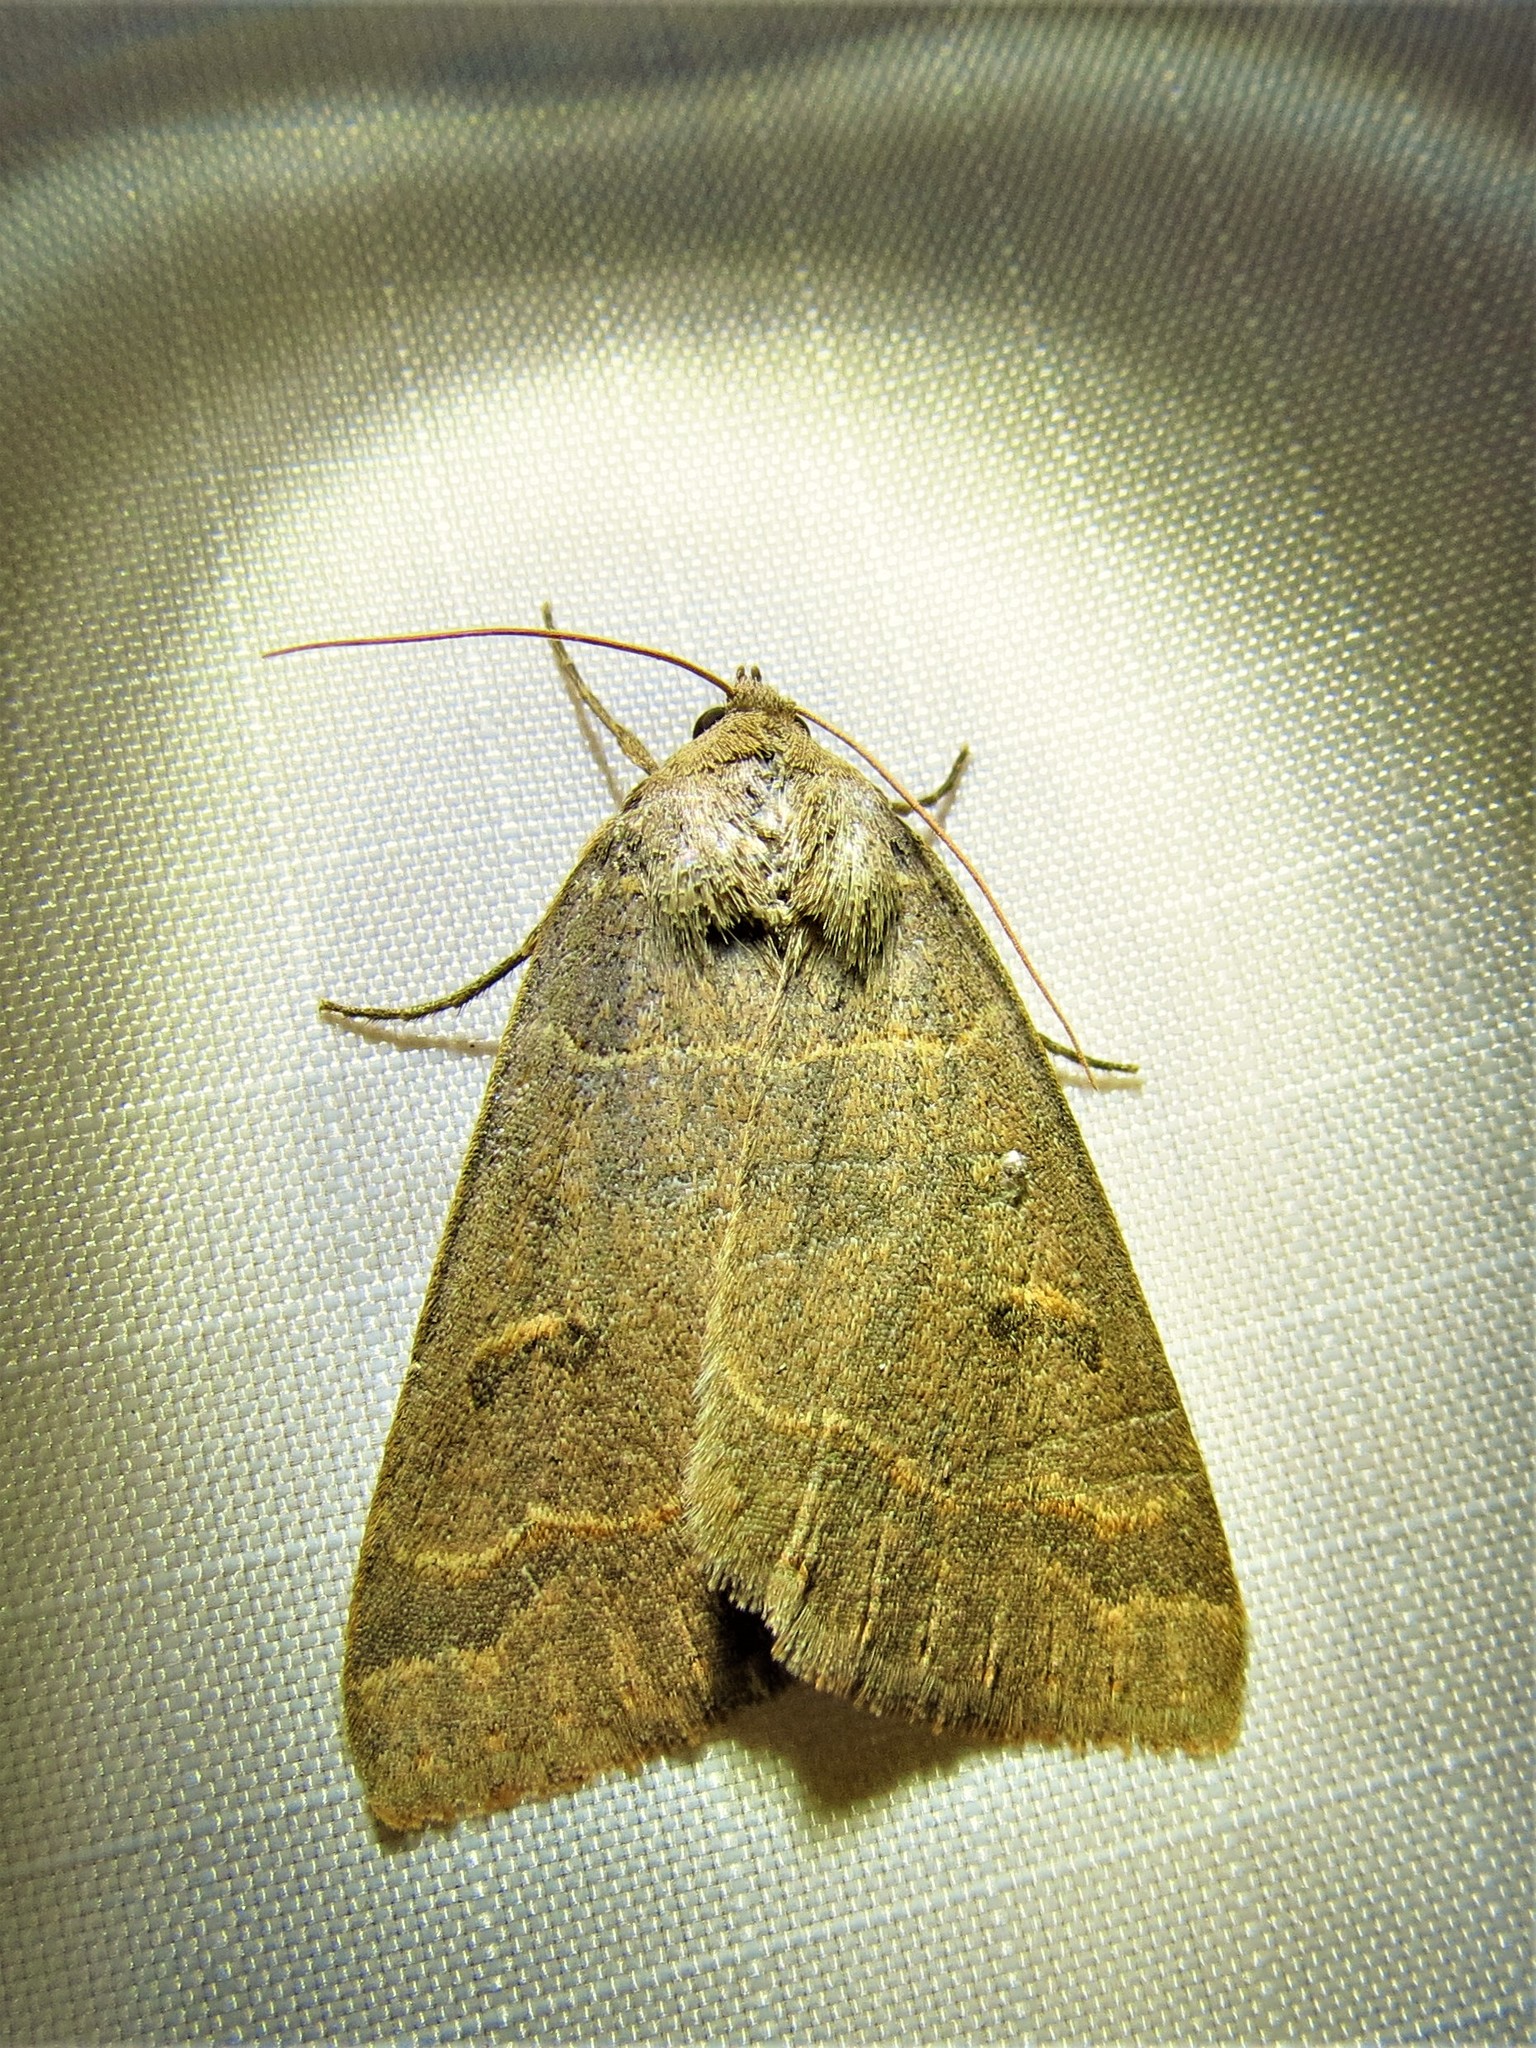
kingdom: Animalia
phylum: Arthropoda
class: Insecta
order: Lepidoptera
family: Erebidae
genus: Phoberia
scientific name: Phoberia atomaris
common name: Common oak moth
